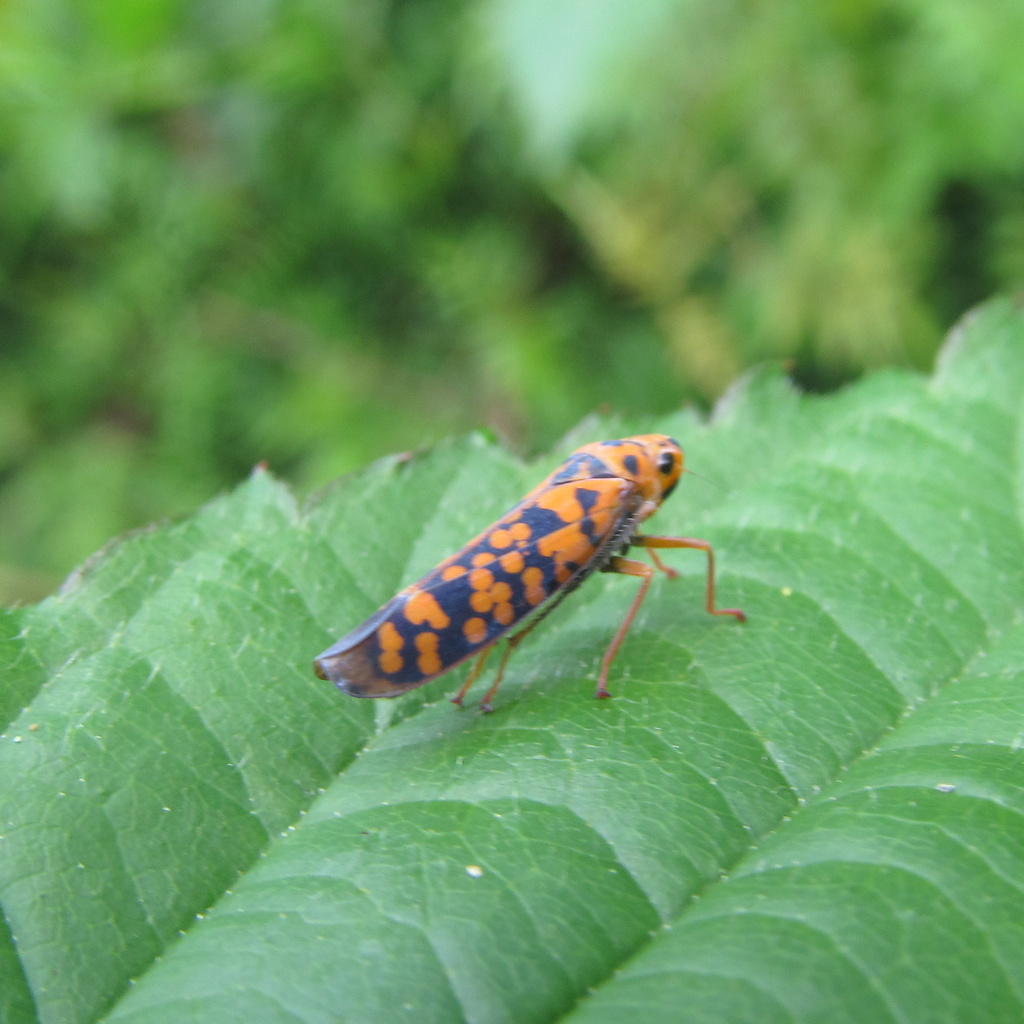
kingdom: Animalia
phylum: Arthropoda
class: Insecta
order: Hemiptera
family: Cicadellidae
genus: Pawiloma
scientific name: Pawiloma victima
